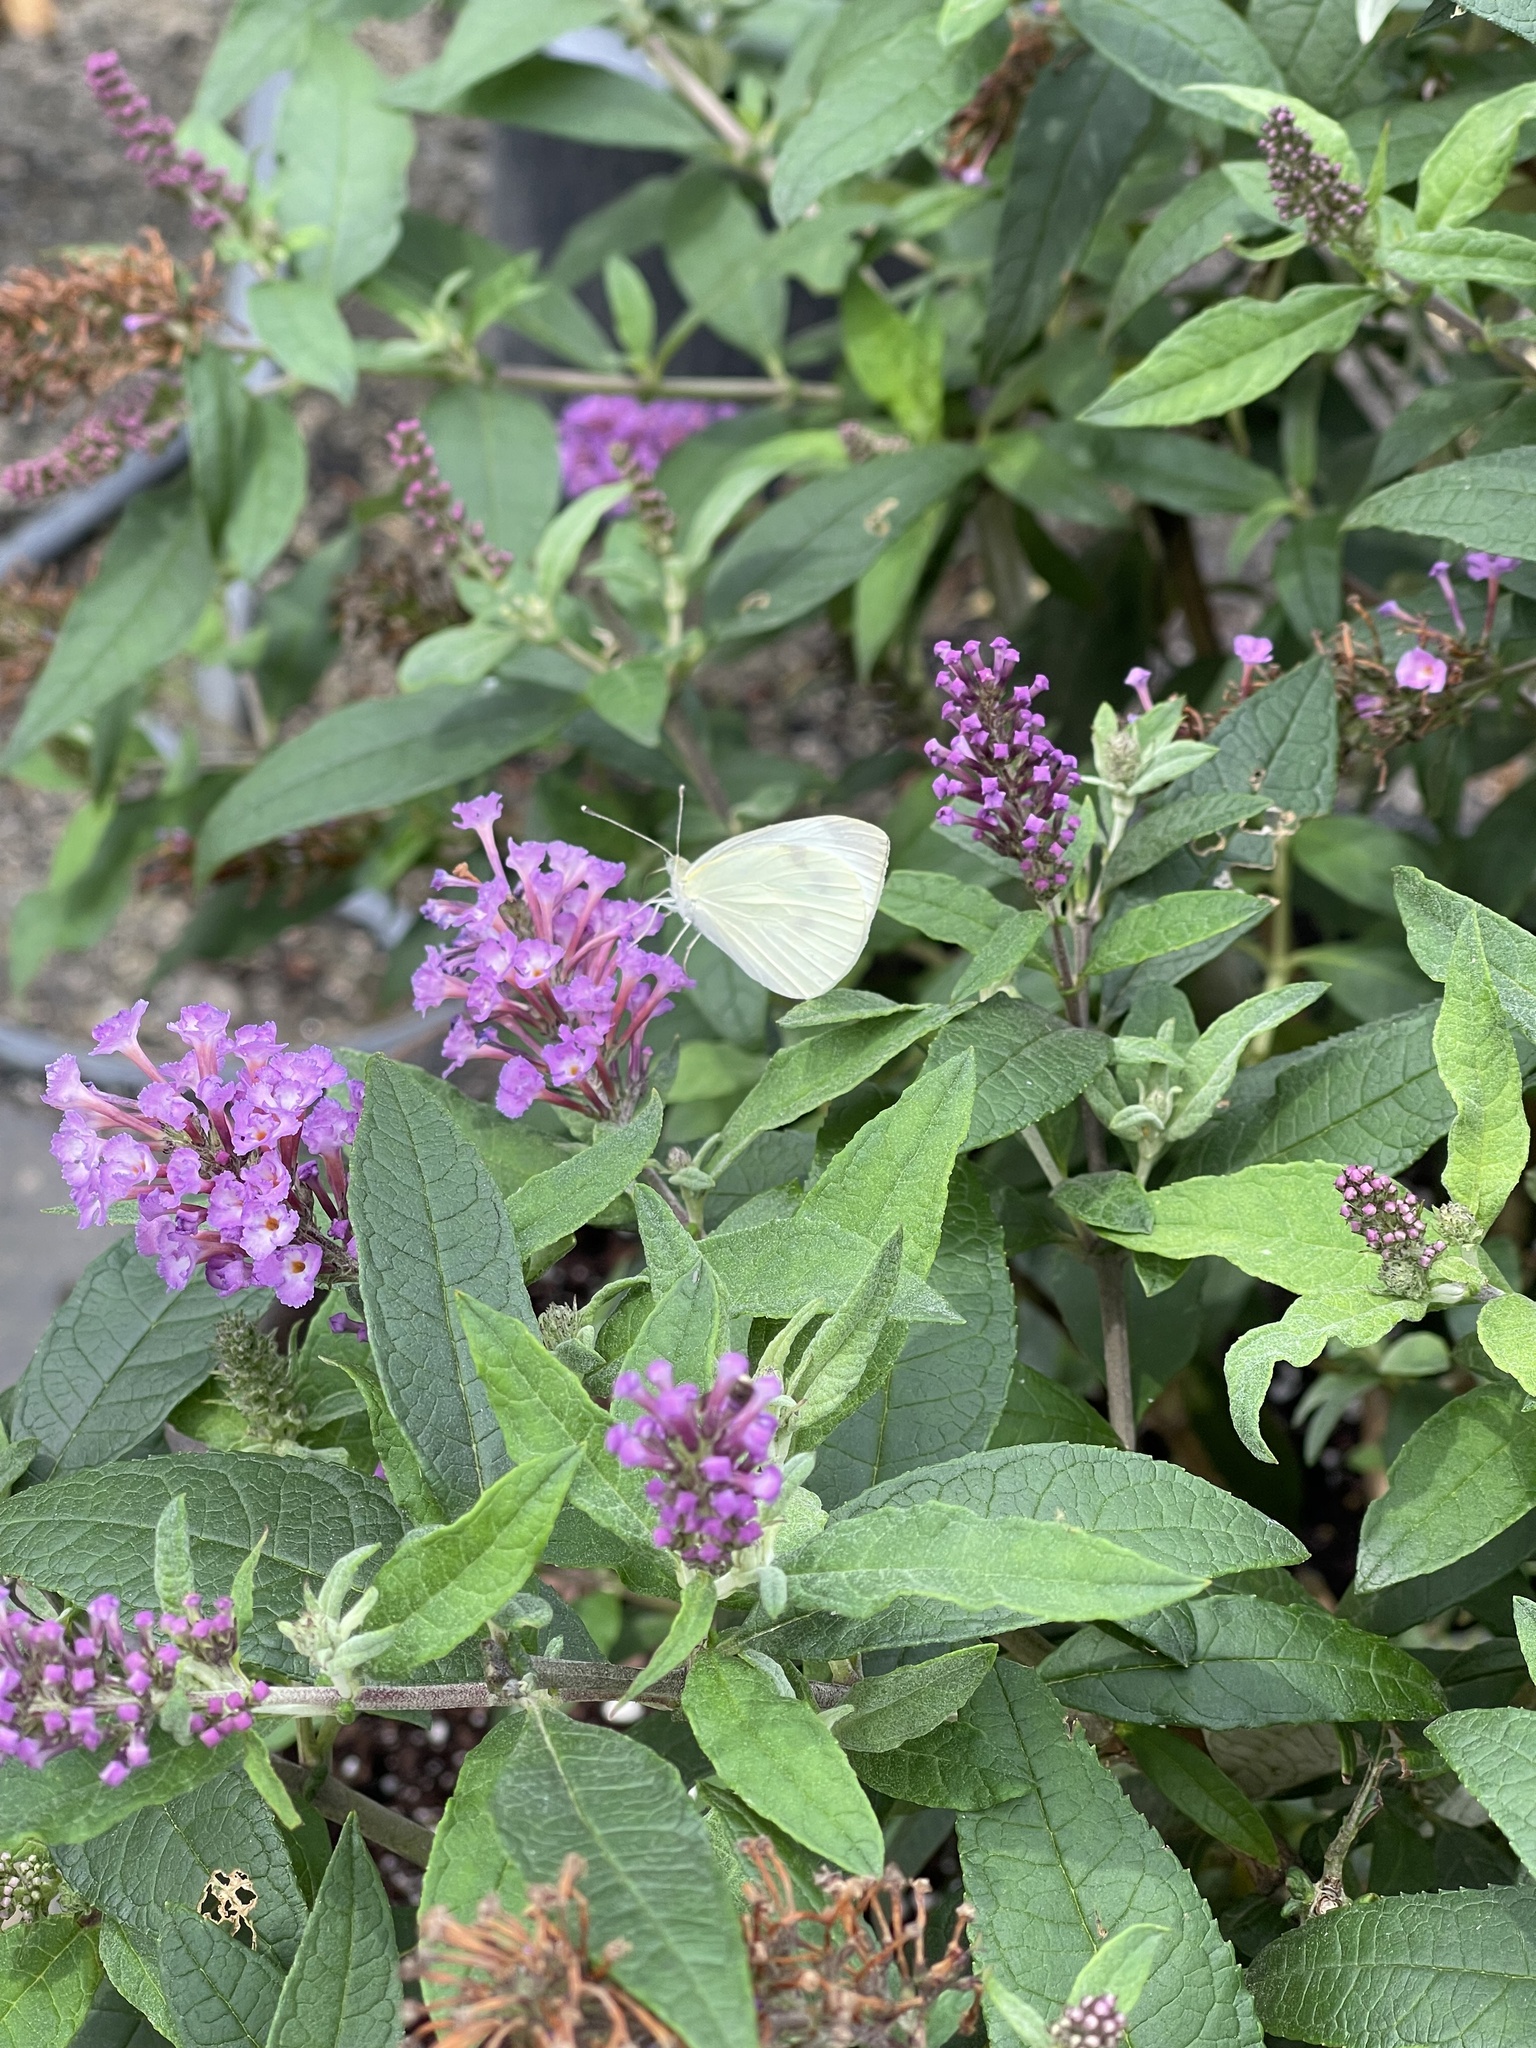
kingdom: Animalia
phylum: Arthropoda
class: Insecta
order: Lepidoptera
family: Pieridae
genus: Pieris
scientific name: Pieris rapae
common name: Small white
